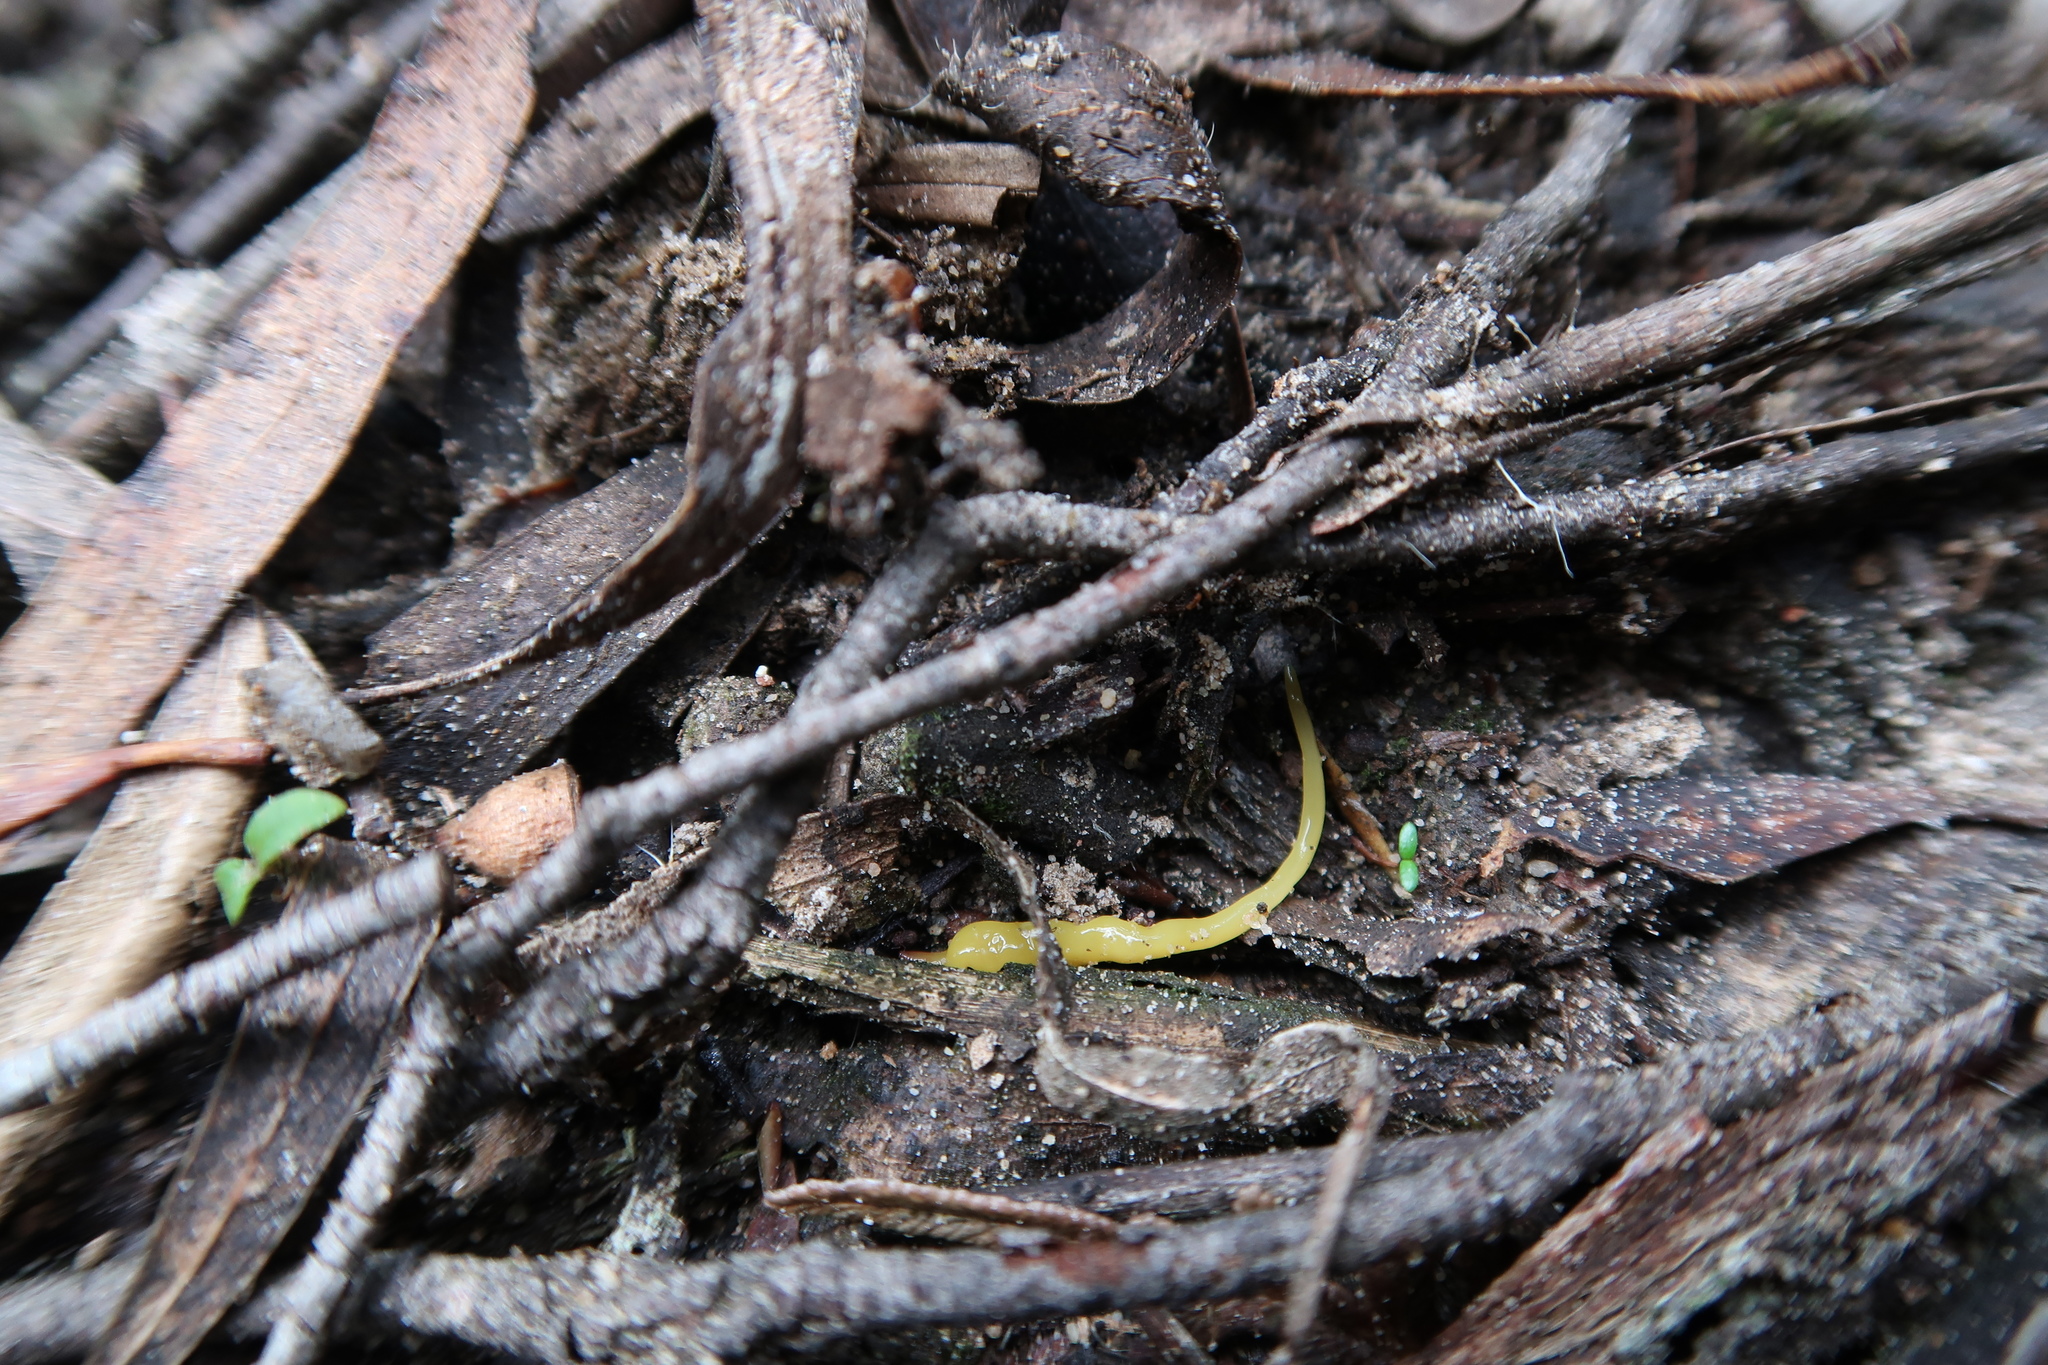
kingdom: Animalia
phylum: Platyhelminthes
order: Tricladida
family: Geoplanidae
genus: Fletchamia
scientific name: Fletchamia sugdeni
